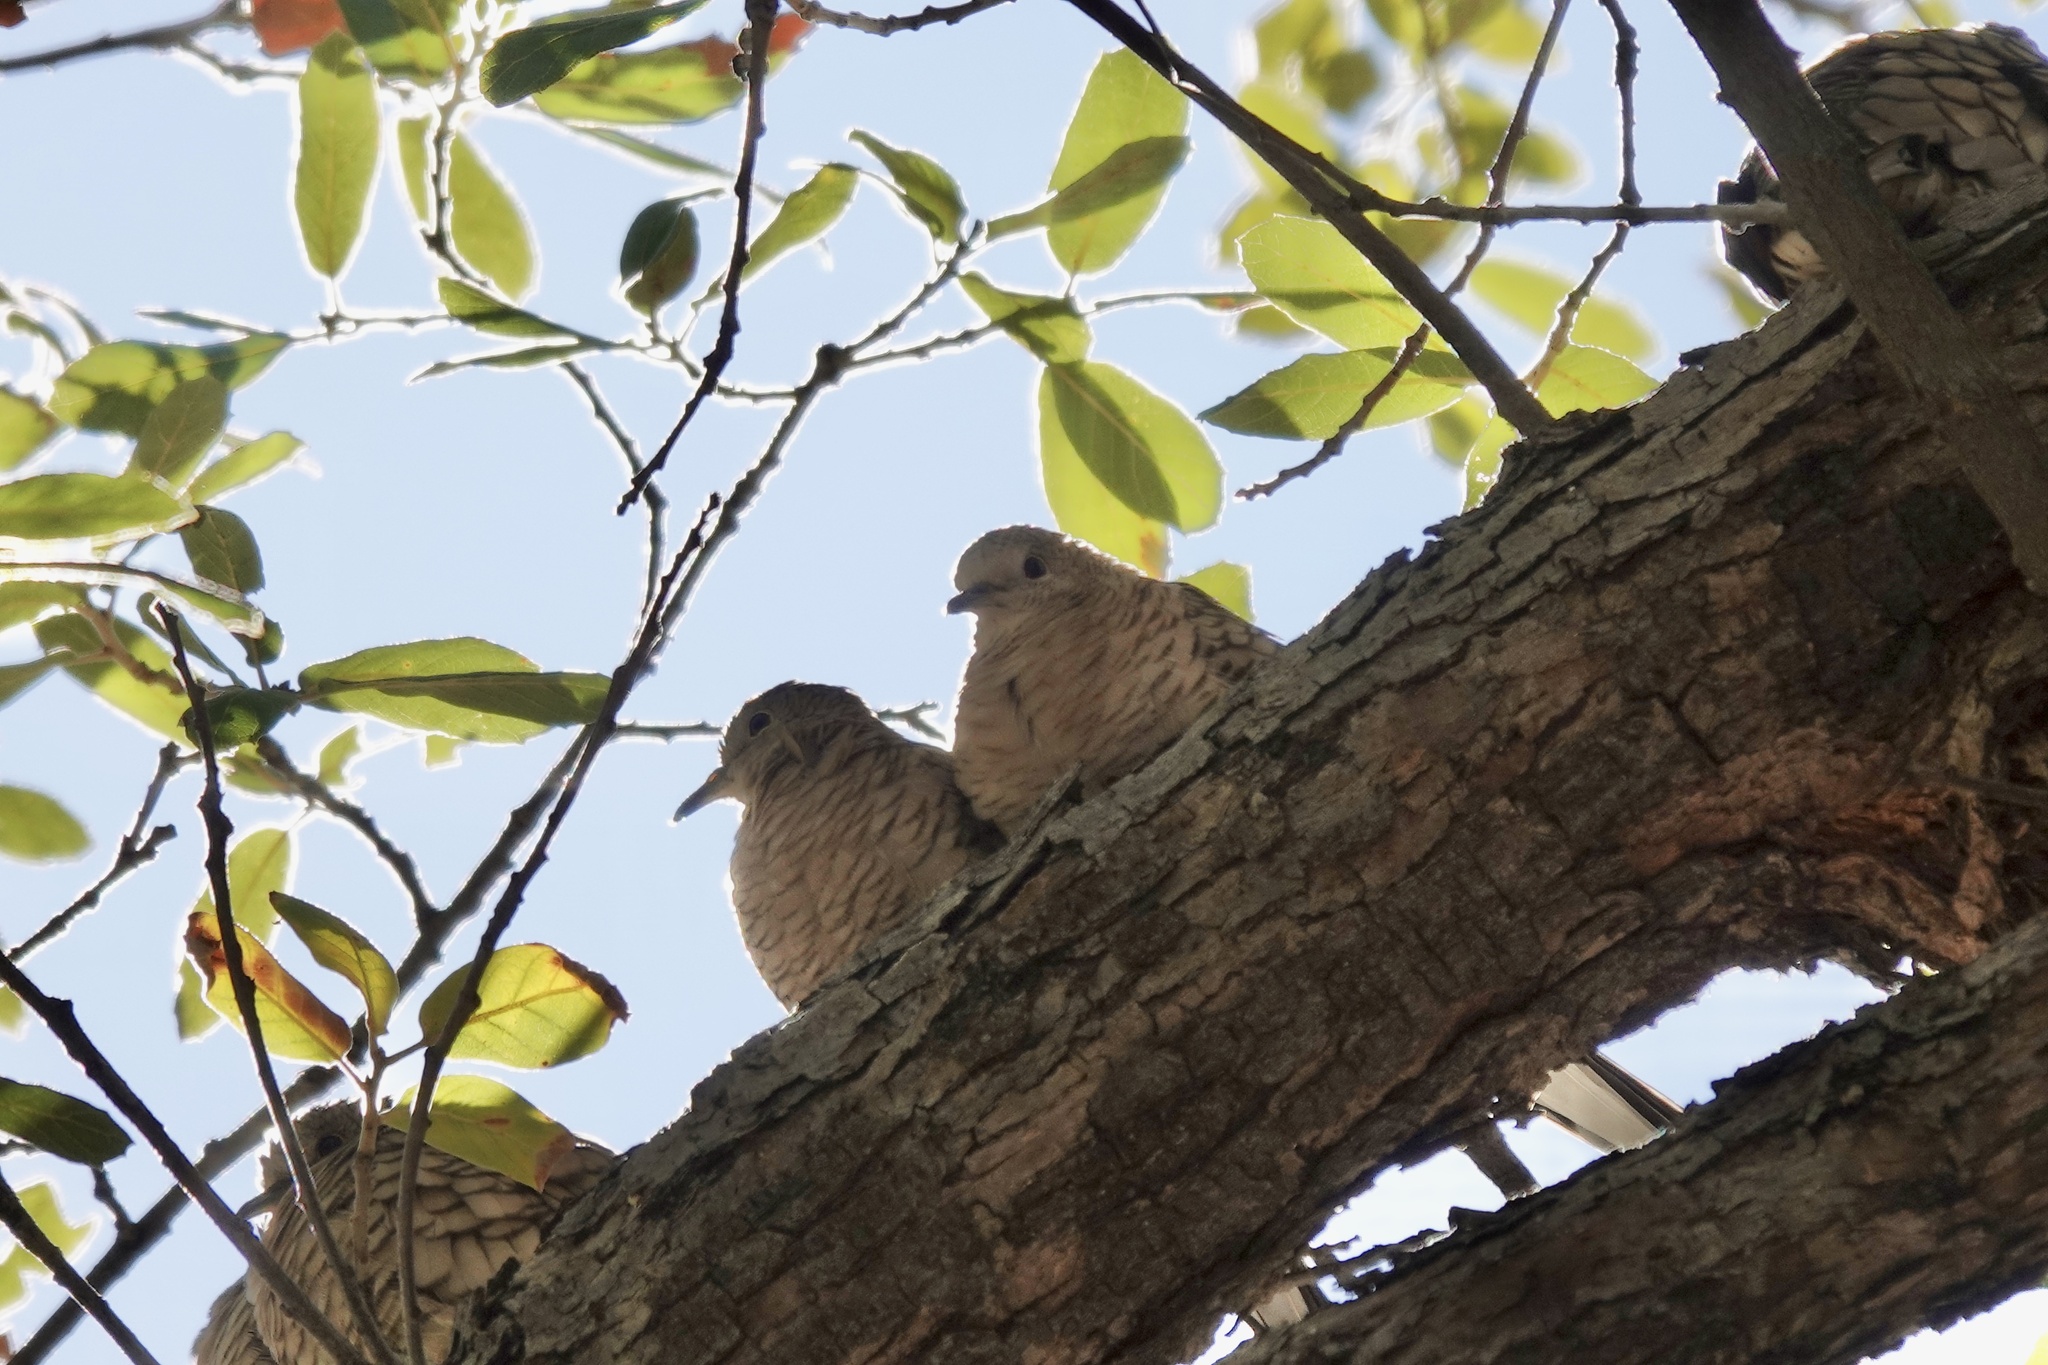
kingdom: Animalia
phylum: Chordata
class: Aves
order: Columbiformes
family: Columbidae
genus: Columbina
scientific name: Columbina inca
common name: Inca dove
